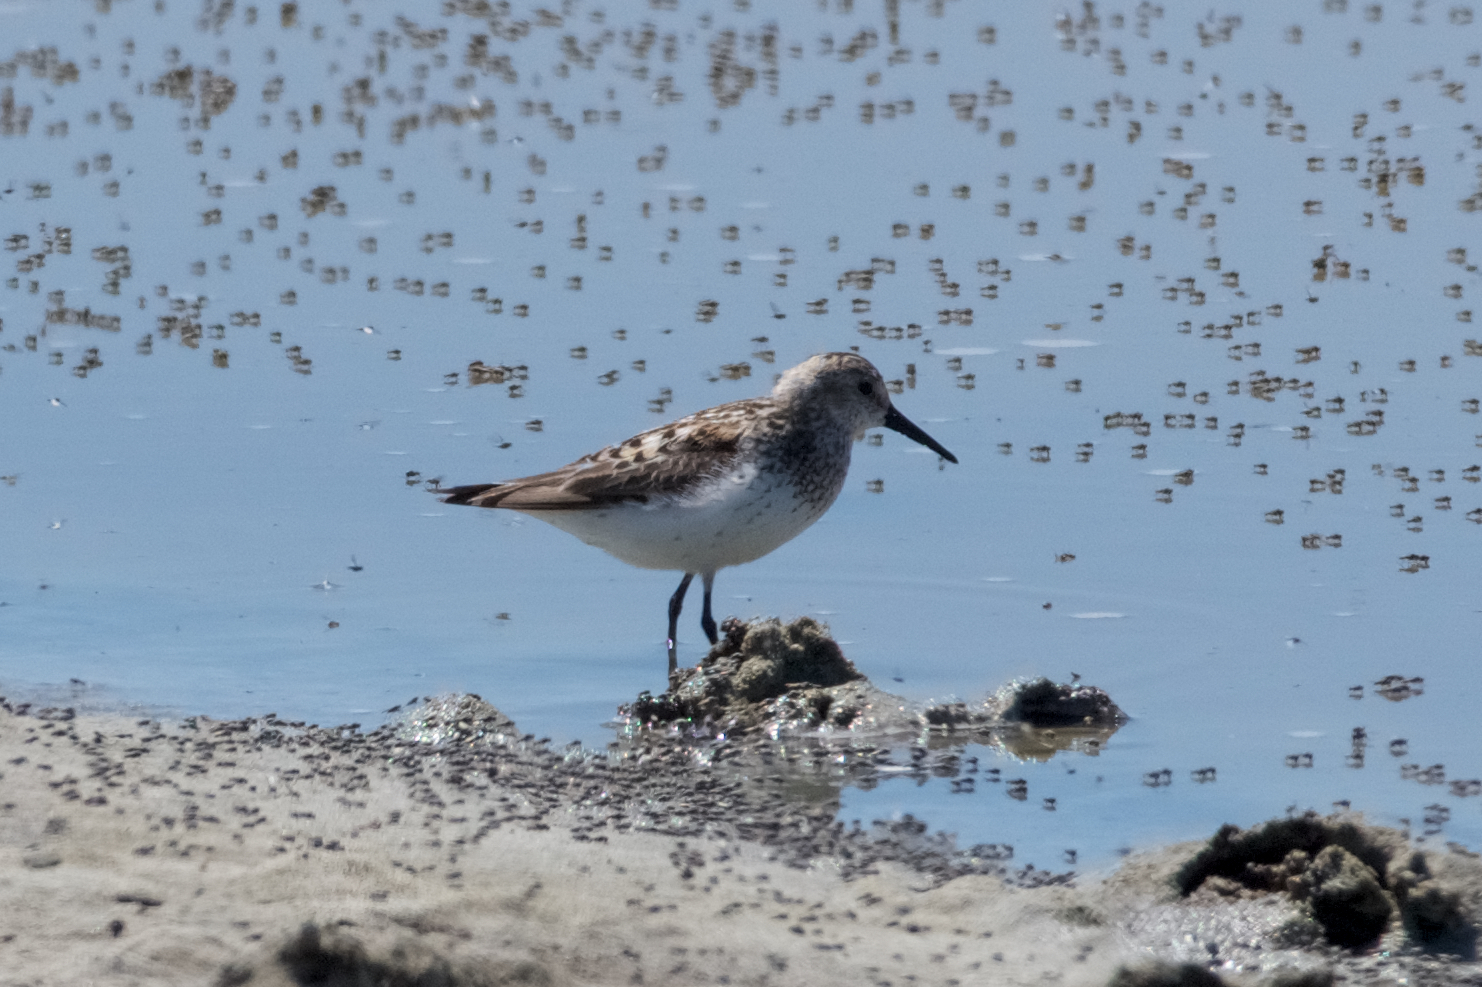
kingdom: Animalia
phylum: Chordata
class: Aves
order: Charadriiformes
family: Scolopacidae
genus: Calidris
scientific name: Calidris mauri
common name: Western sandpiper
